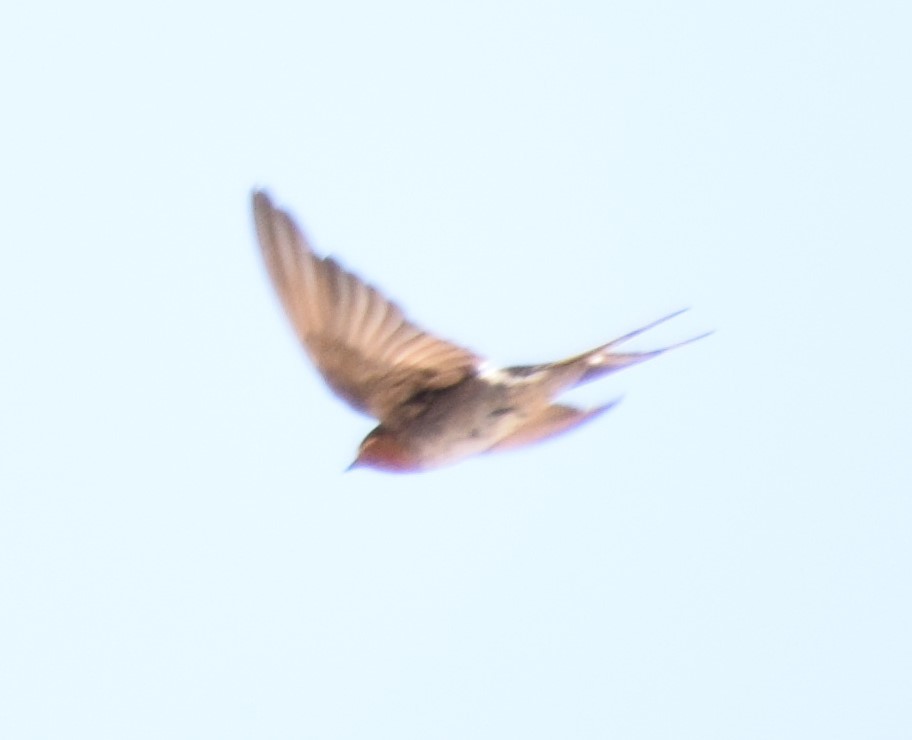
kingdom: Animalia
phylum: Chordata
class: Aves
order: Passeriformes
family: Hirundinidae
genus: Hirundo
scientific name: Hirundo neoxena
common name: Welcome swallow
